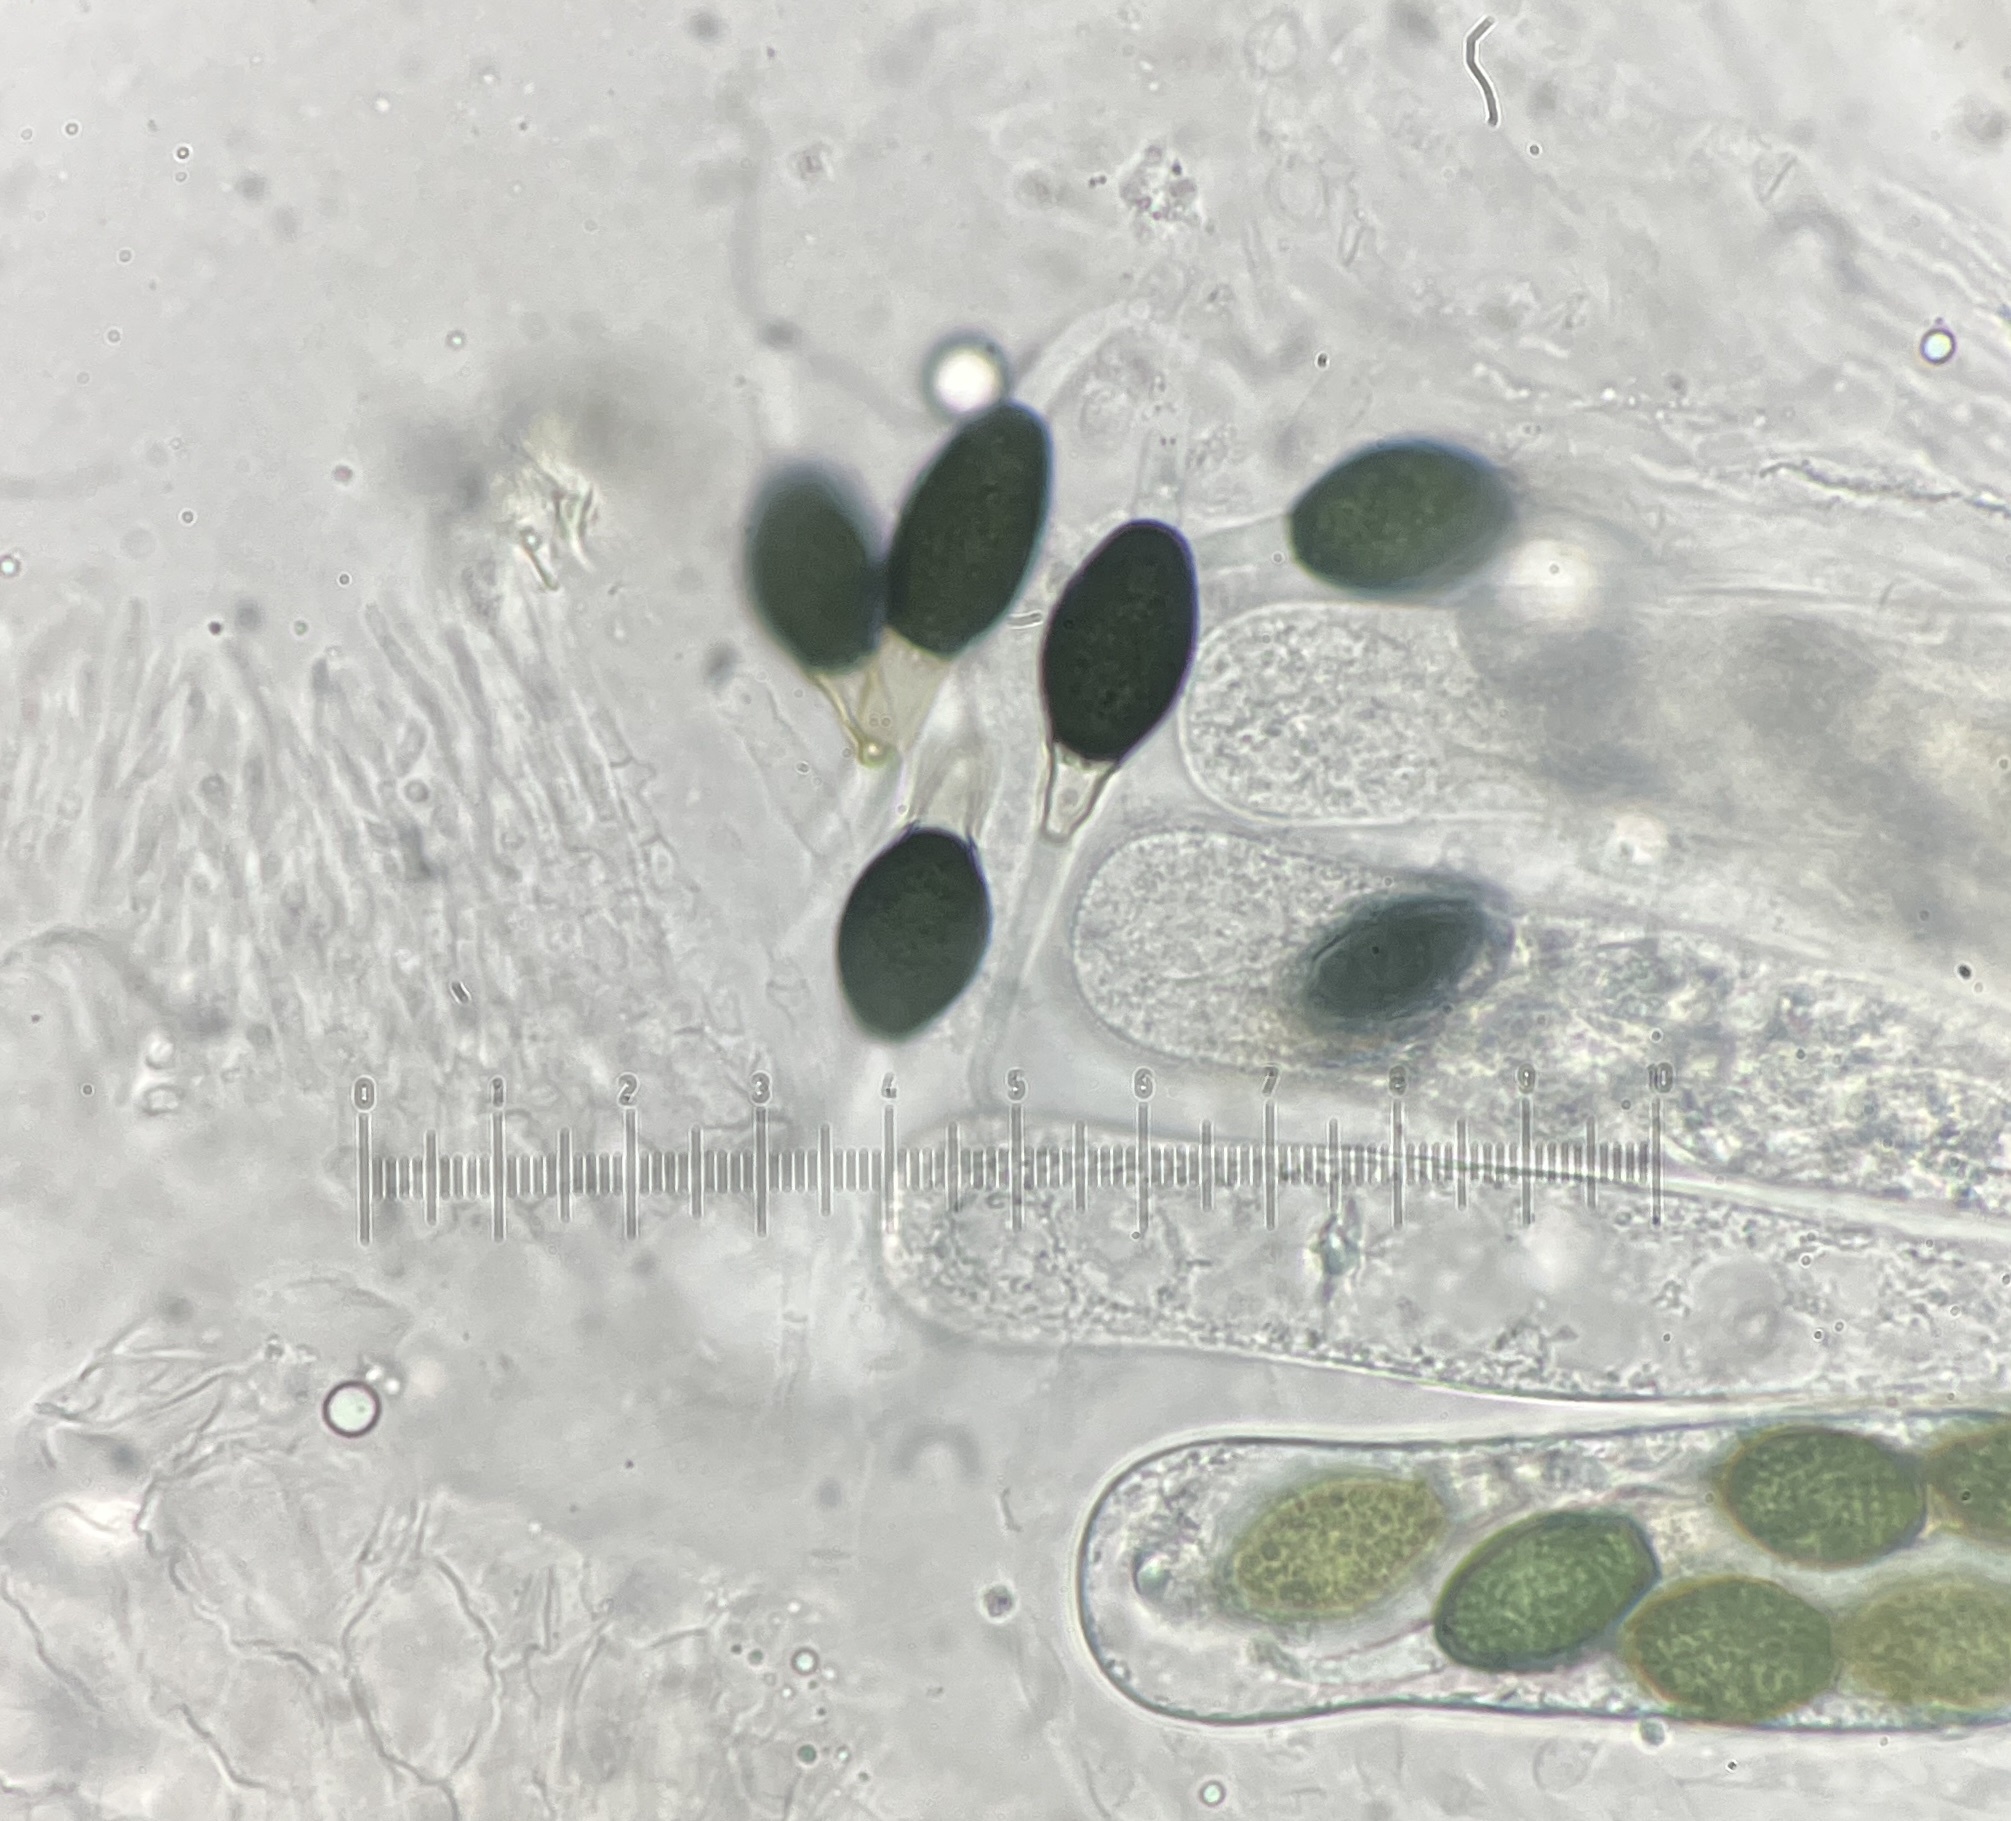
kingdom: Fungi
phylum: Ascomycota
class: Sordariomycetes
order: Sordariales
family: Podosporaceae
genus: Podospora
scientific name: Podospora ellisiana
